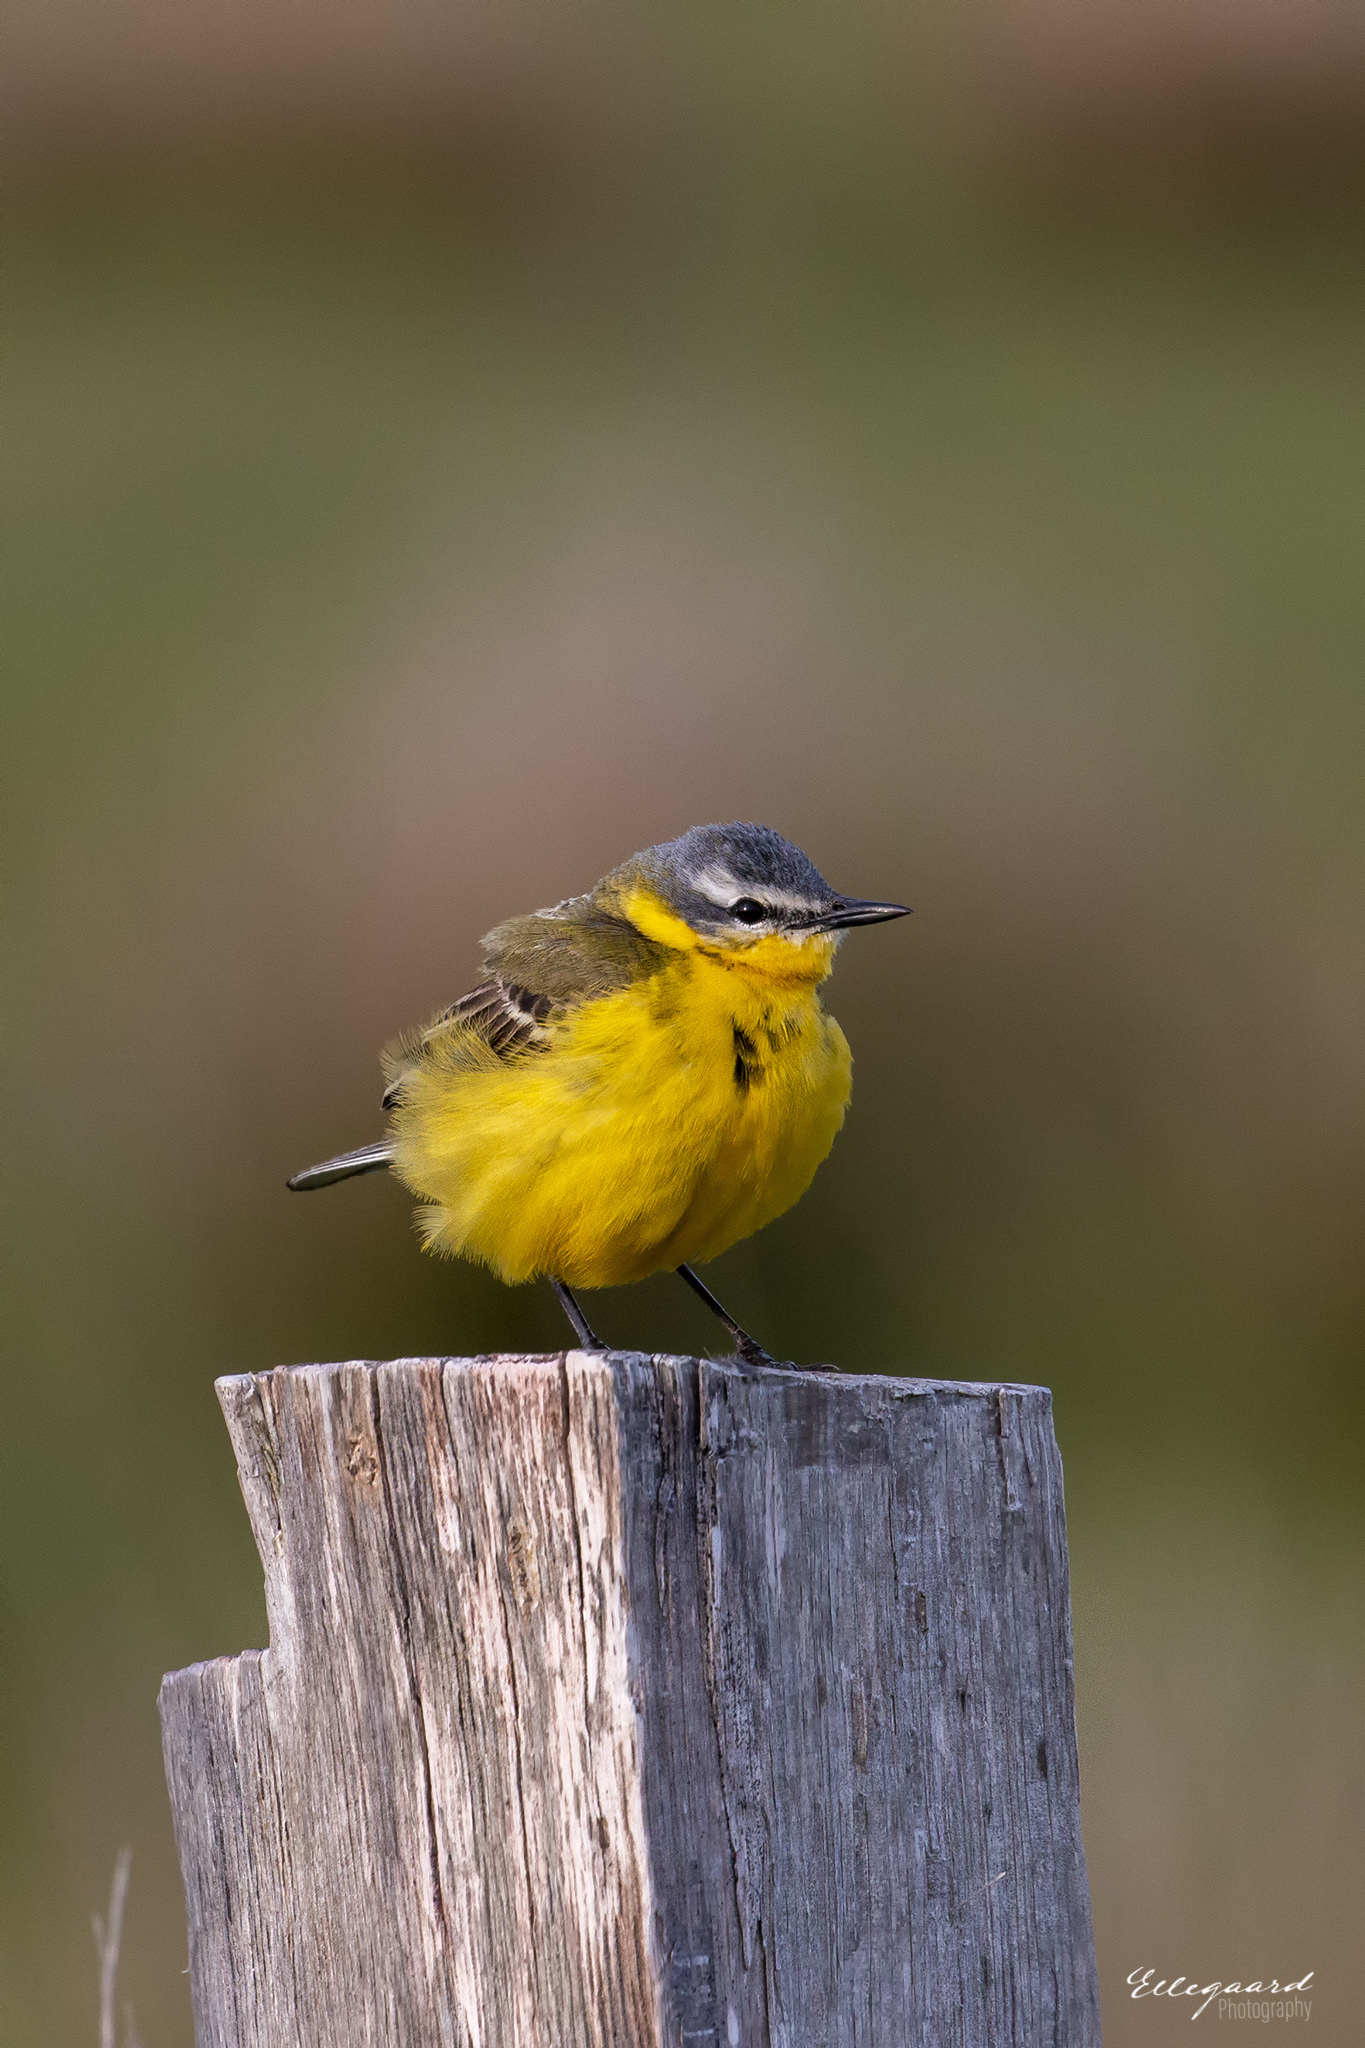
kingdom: Animalia
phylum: Chordata
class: Aves
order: Passeriformes
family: Motacillidae
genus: Motacilla
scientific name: Motacilla flava
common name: Western yellow wagtail
